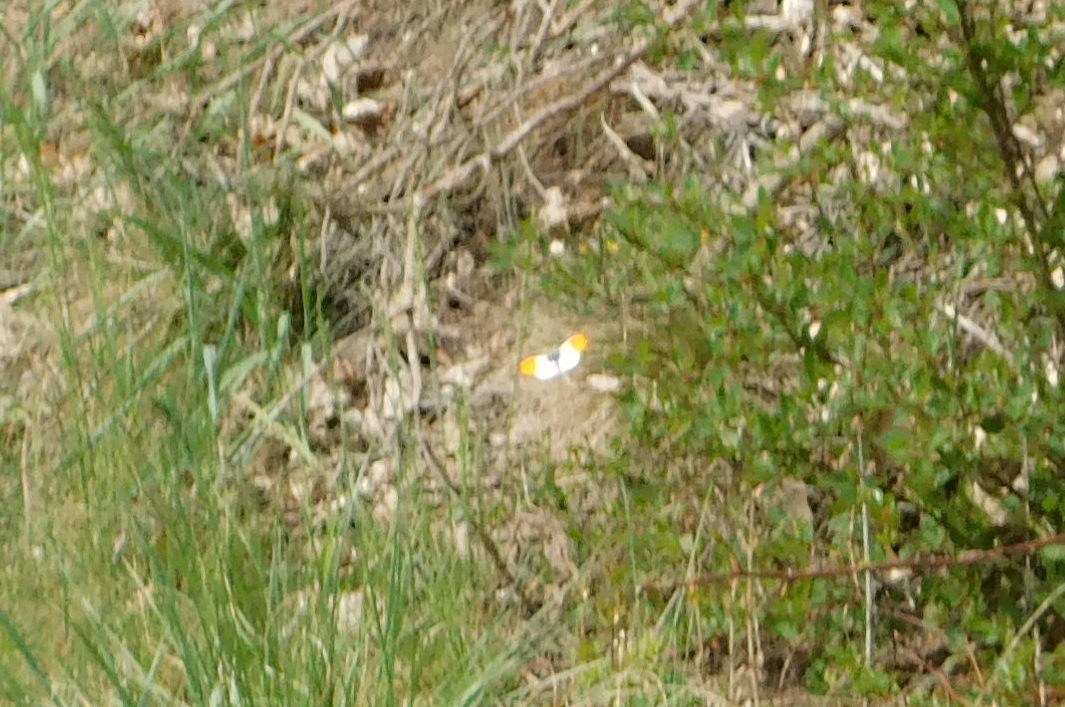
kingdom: Animalia
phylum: Arthropoda
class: Insecta
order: Lepidoptera
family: Pieridae
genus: Anthocharis
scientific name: Anthocharis cardamines
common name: Orange-tip
